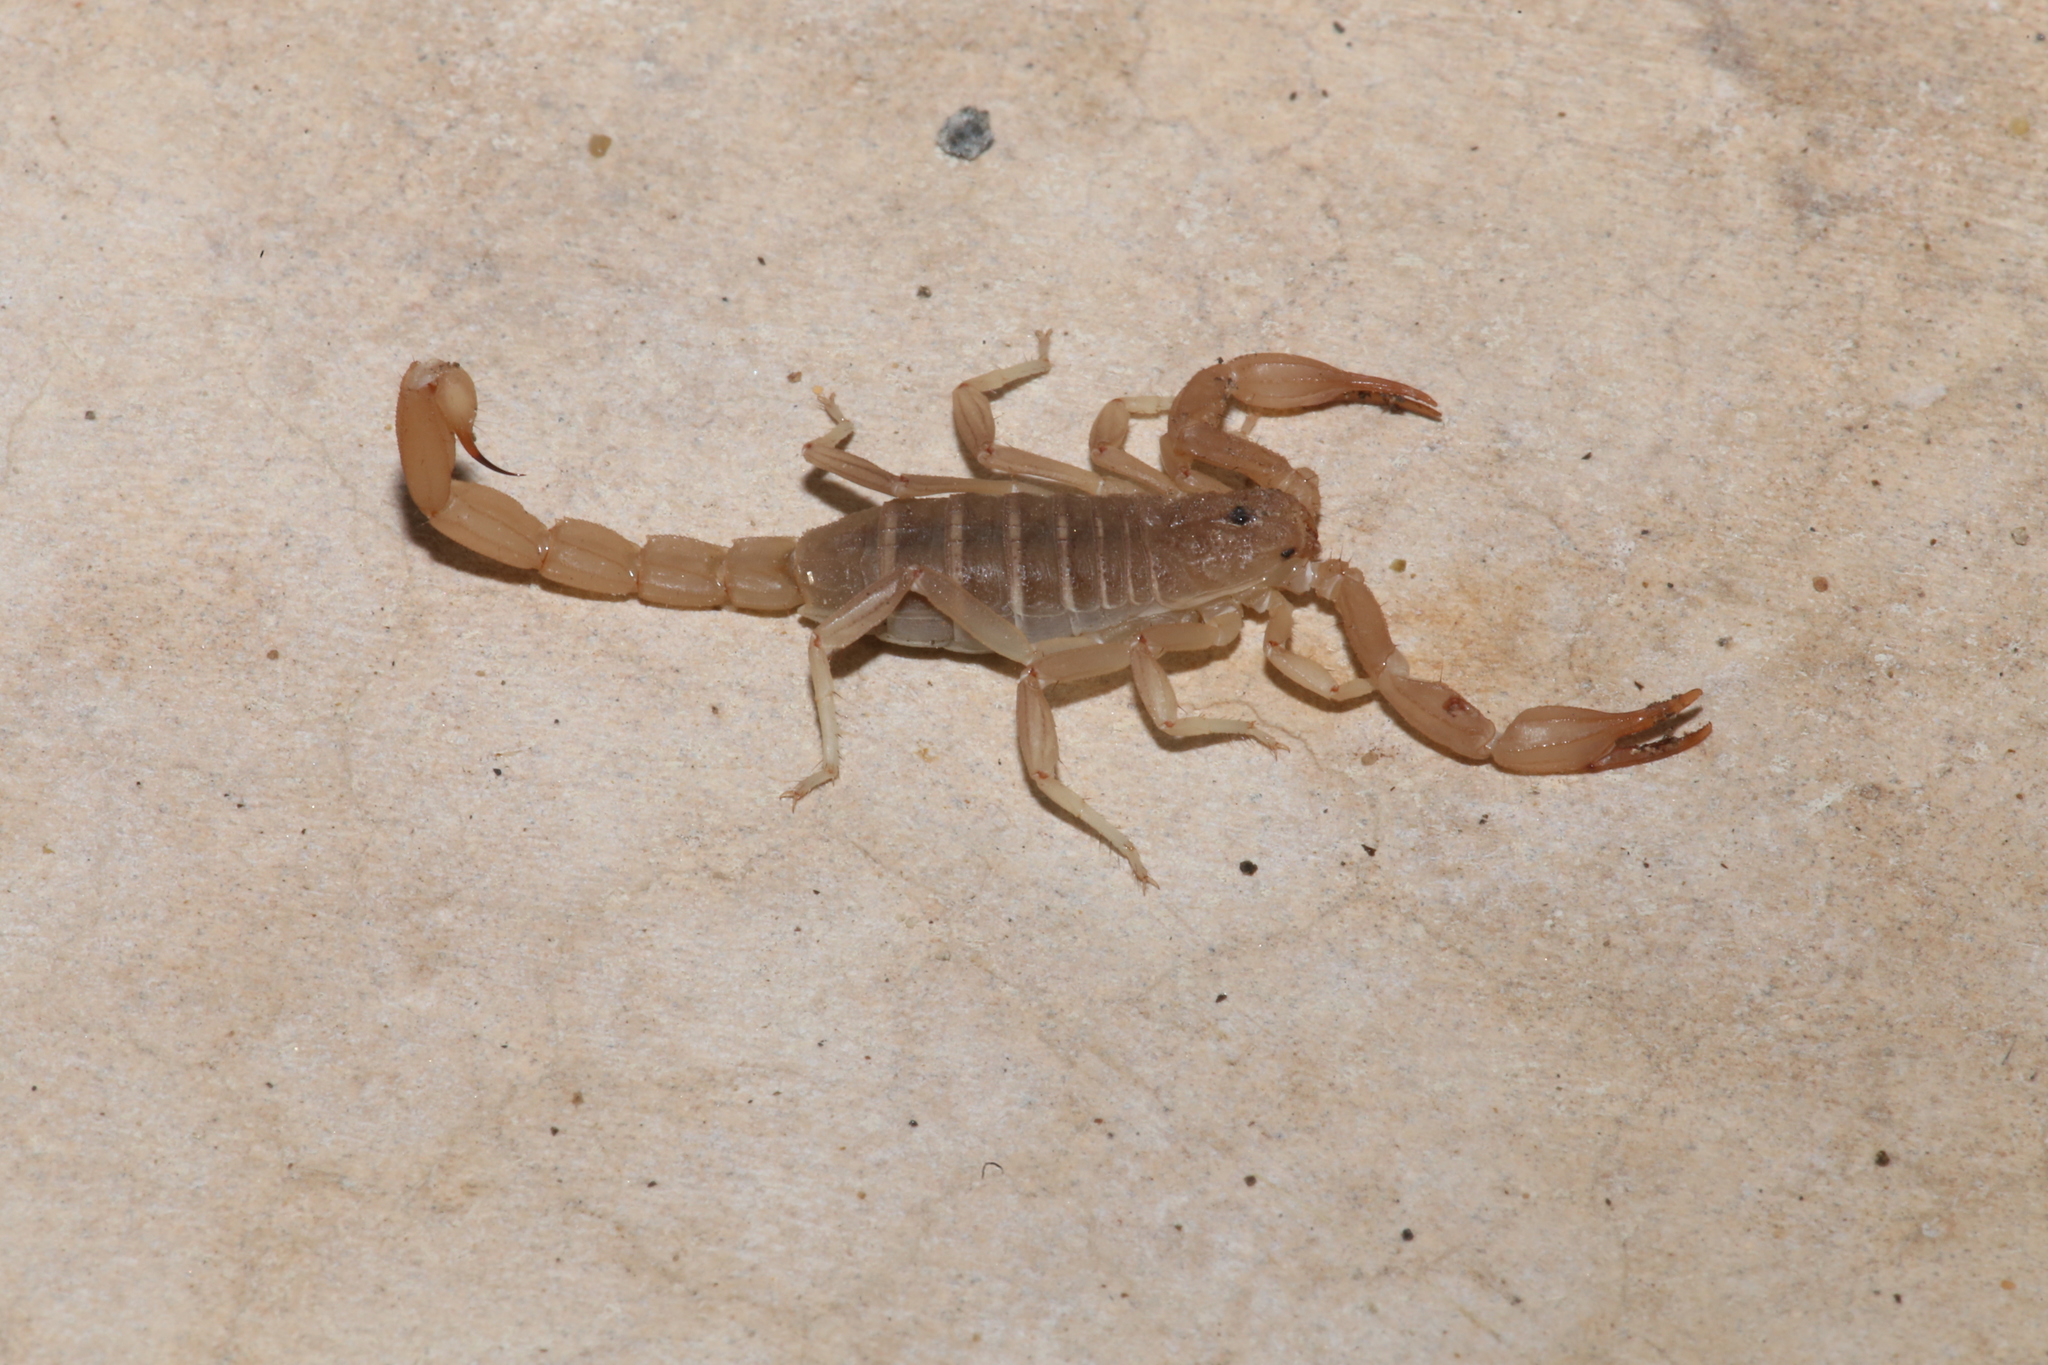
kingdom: Animalia
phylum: Arthropoda
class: Arachnida
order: Scorpiones
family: Vaejovidae
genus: Kochius
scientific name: Kochius punctipalpi
